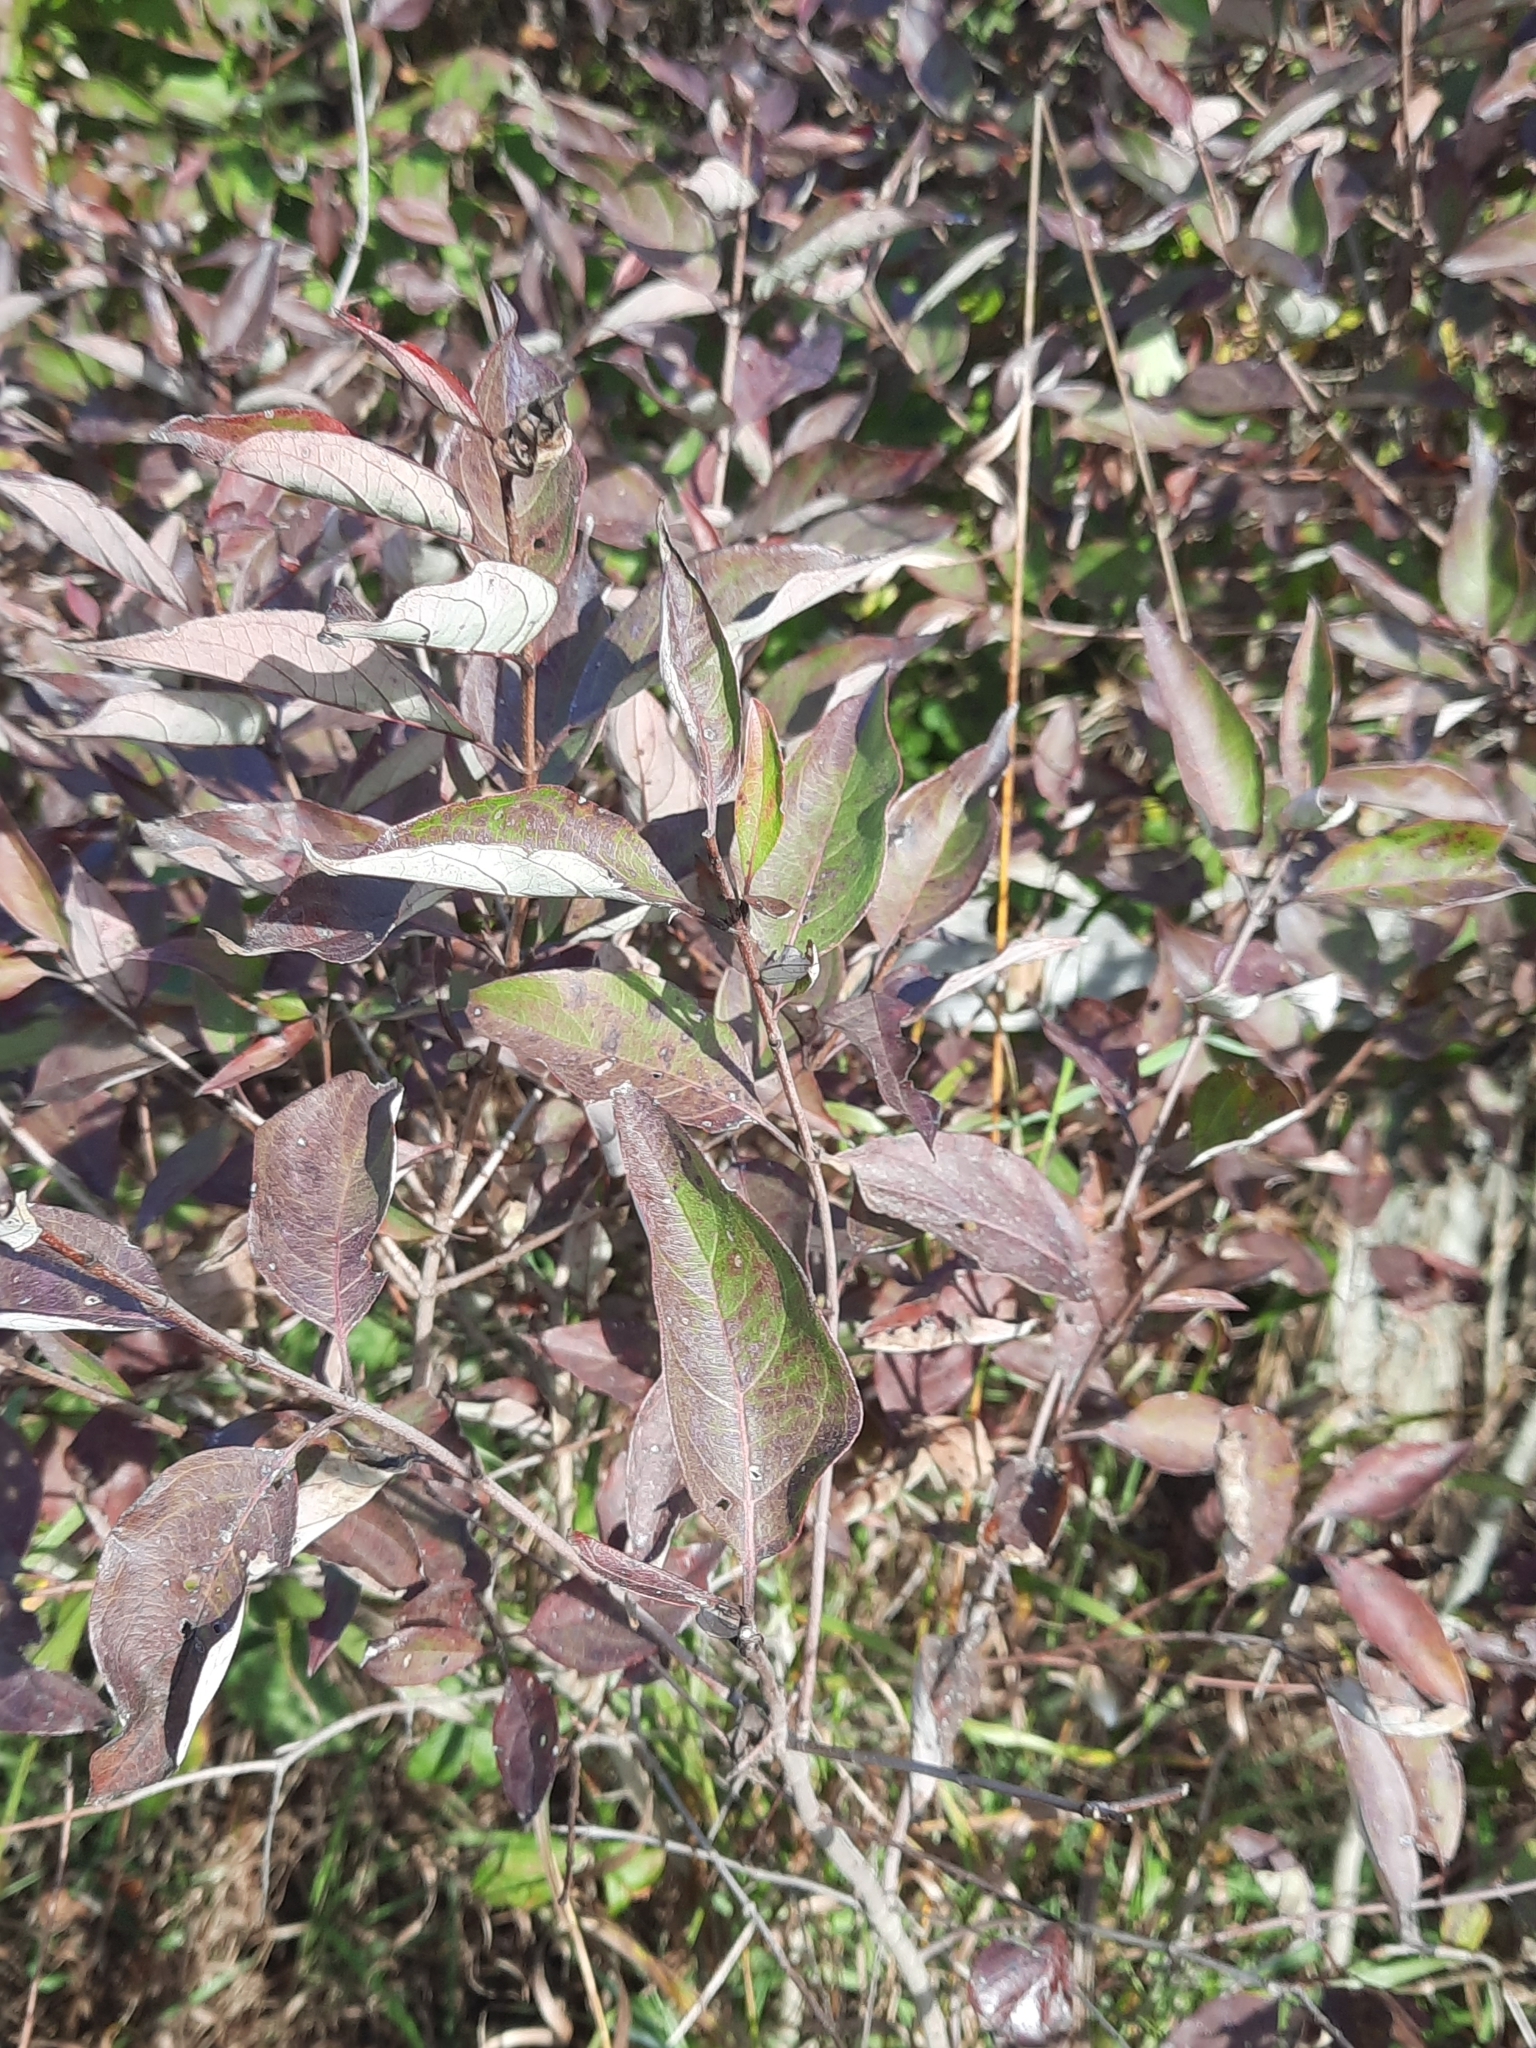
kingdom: Plantae
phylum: Tracheophyta
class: Magnoliopsida
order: Cornales
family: Cornaceae
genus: Cornus
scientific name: Cornus racemosa
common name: Panicled dogwood
